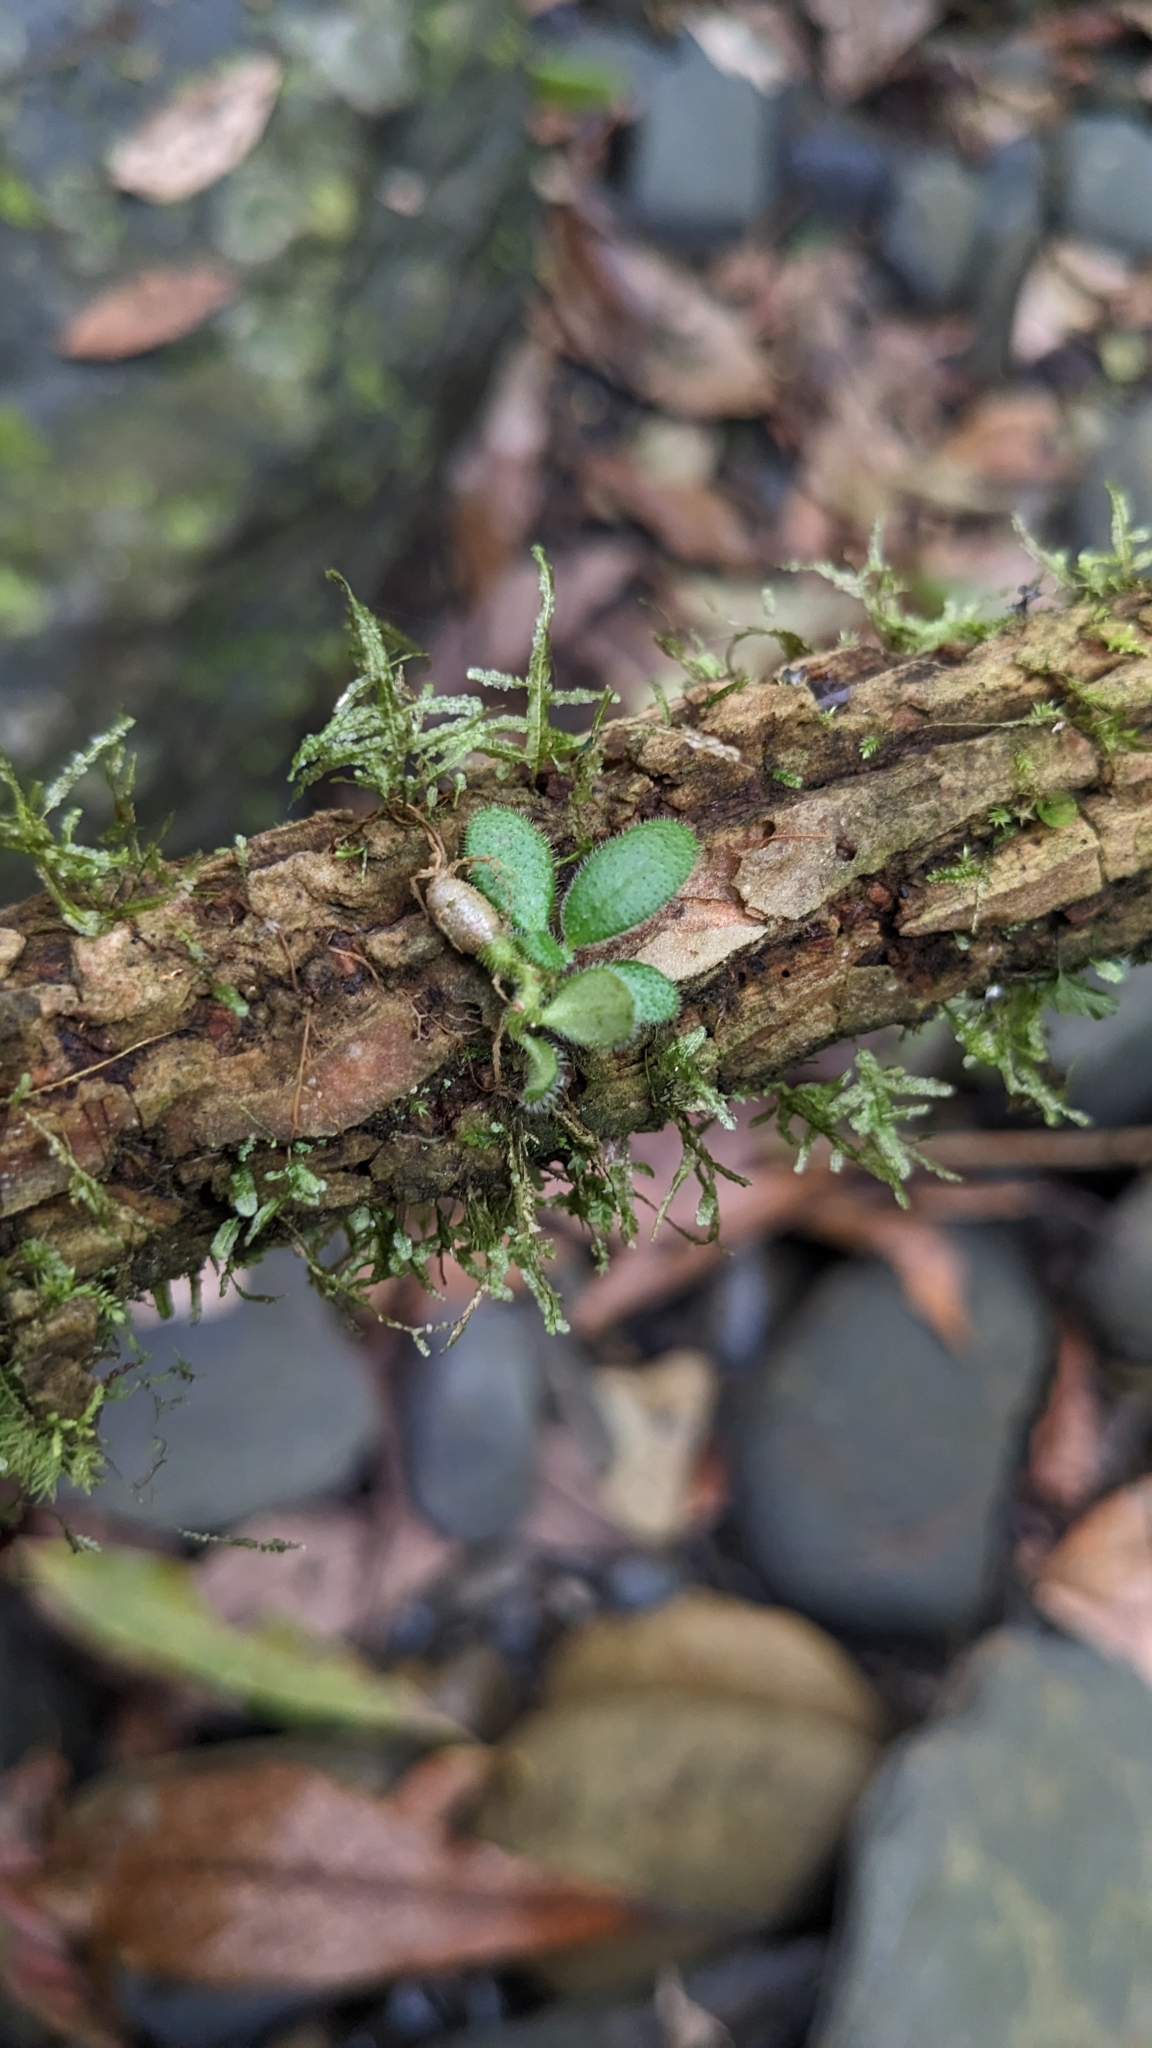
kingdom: Plantae
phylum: Tracheophyta
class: Magnoliopsida
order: Lamiales
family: Gesneriaceae
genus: Lysionotus
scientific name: Lysionotus pauciflorus
